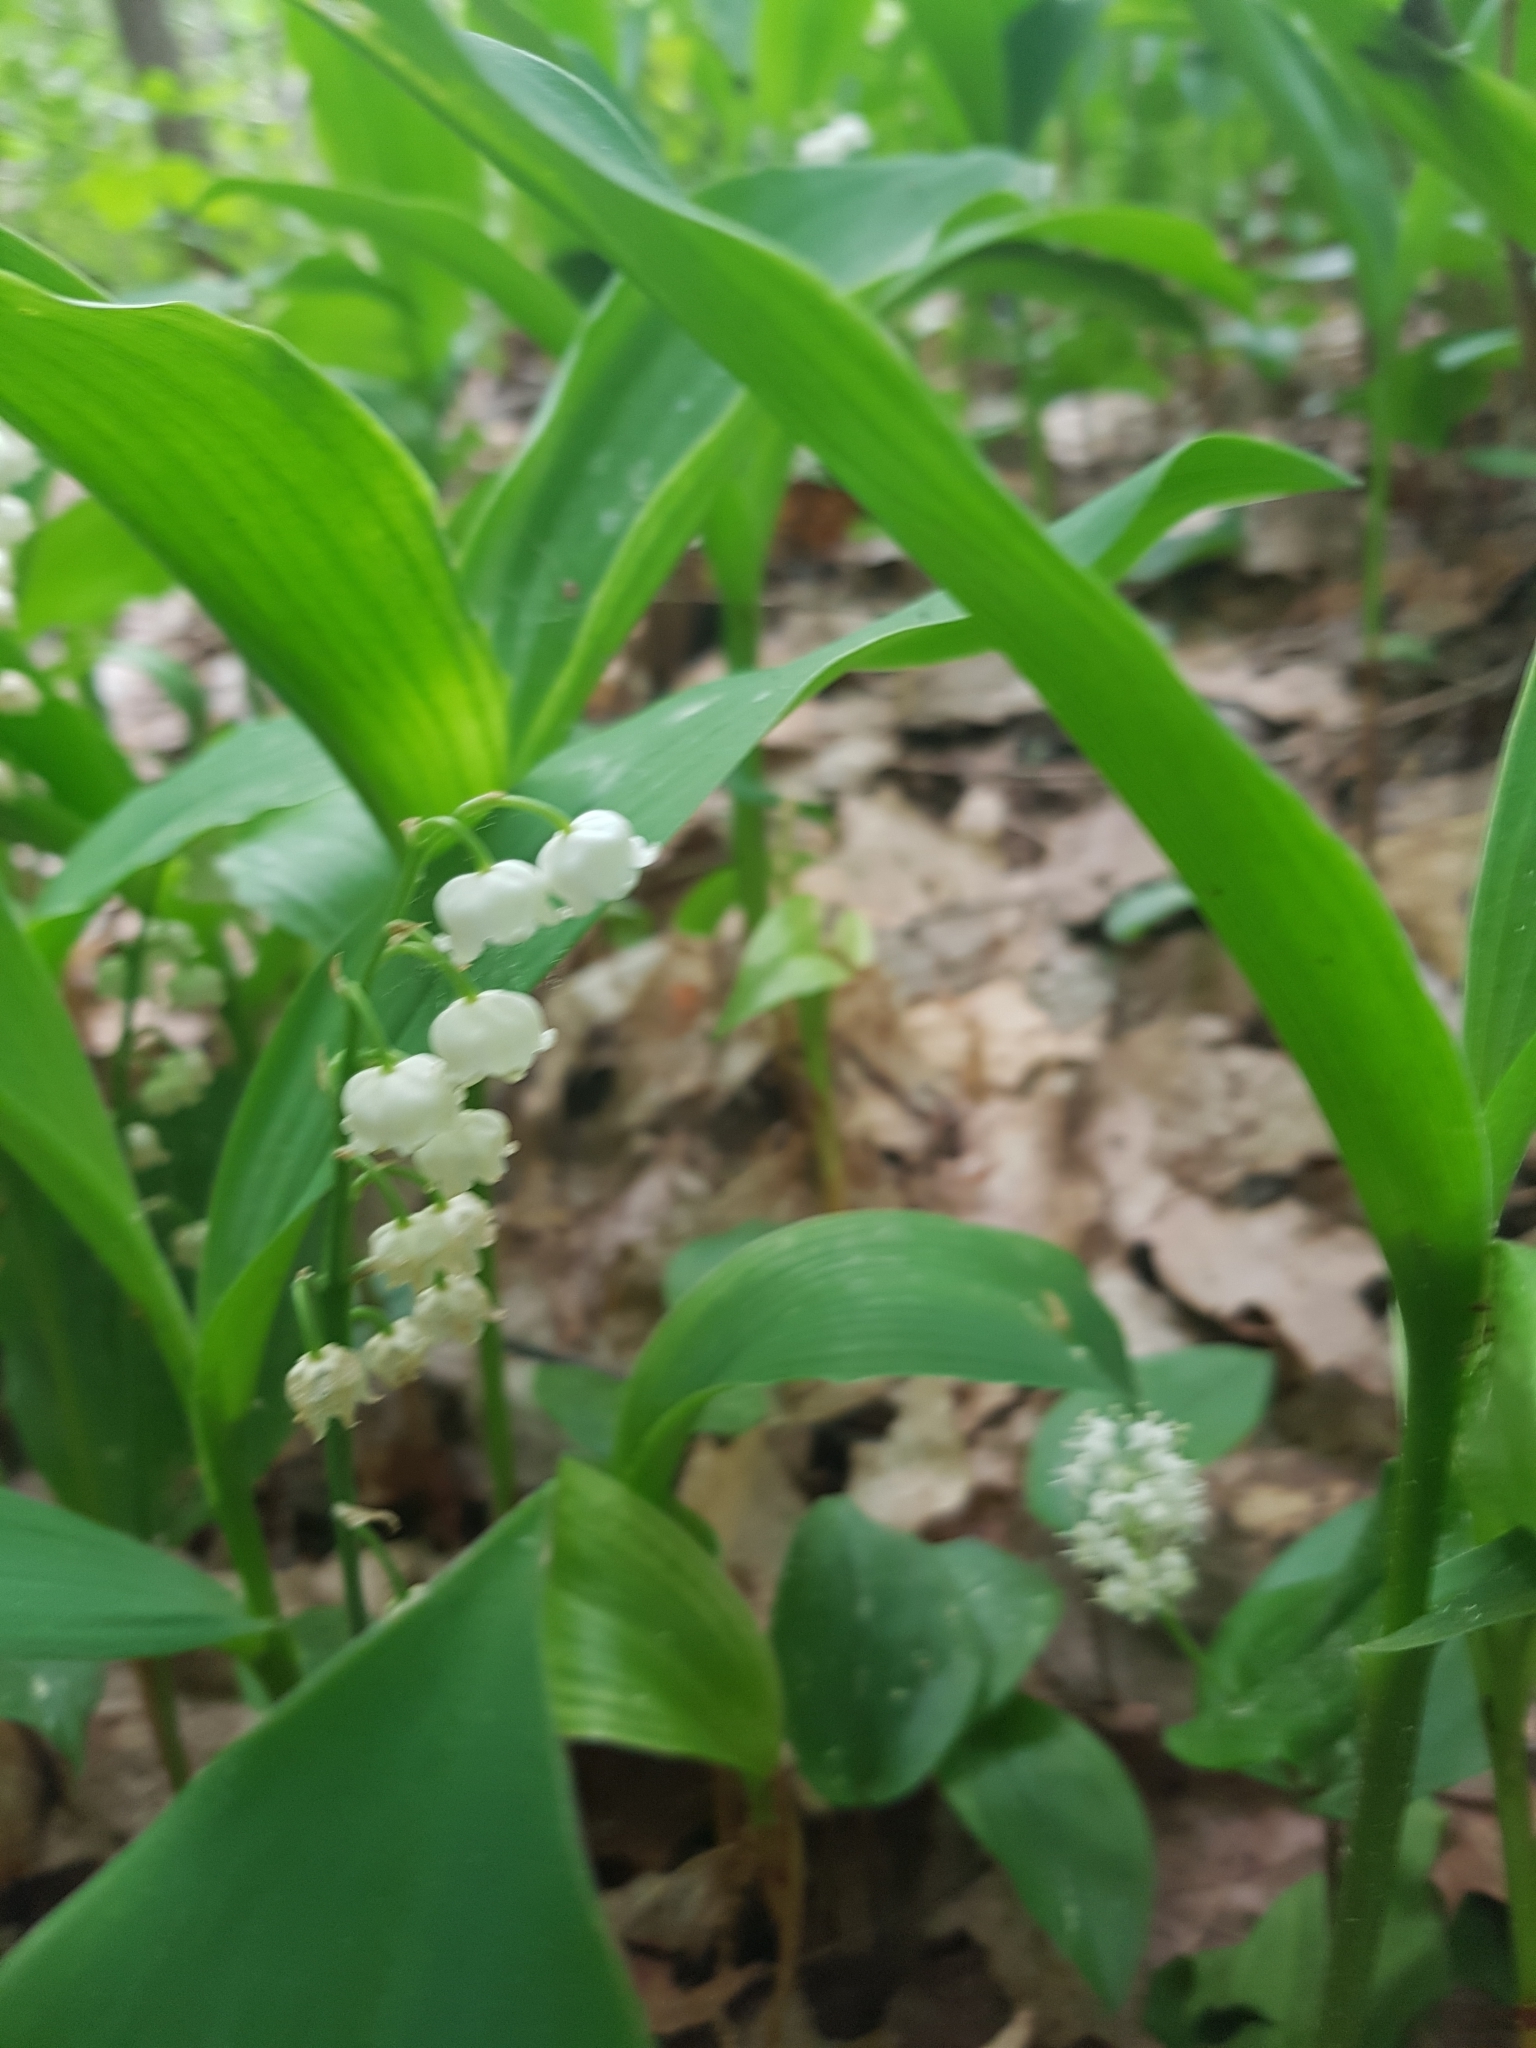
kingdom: Plantae
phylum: Tracheophyta
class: Liliopsida
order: Asparagales
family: Asparagaceae
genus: Convallaria
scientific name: Convallaria majalis
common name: Lily-of-the-valley
